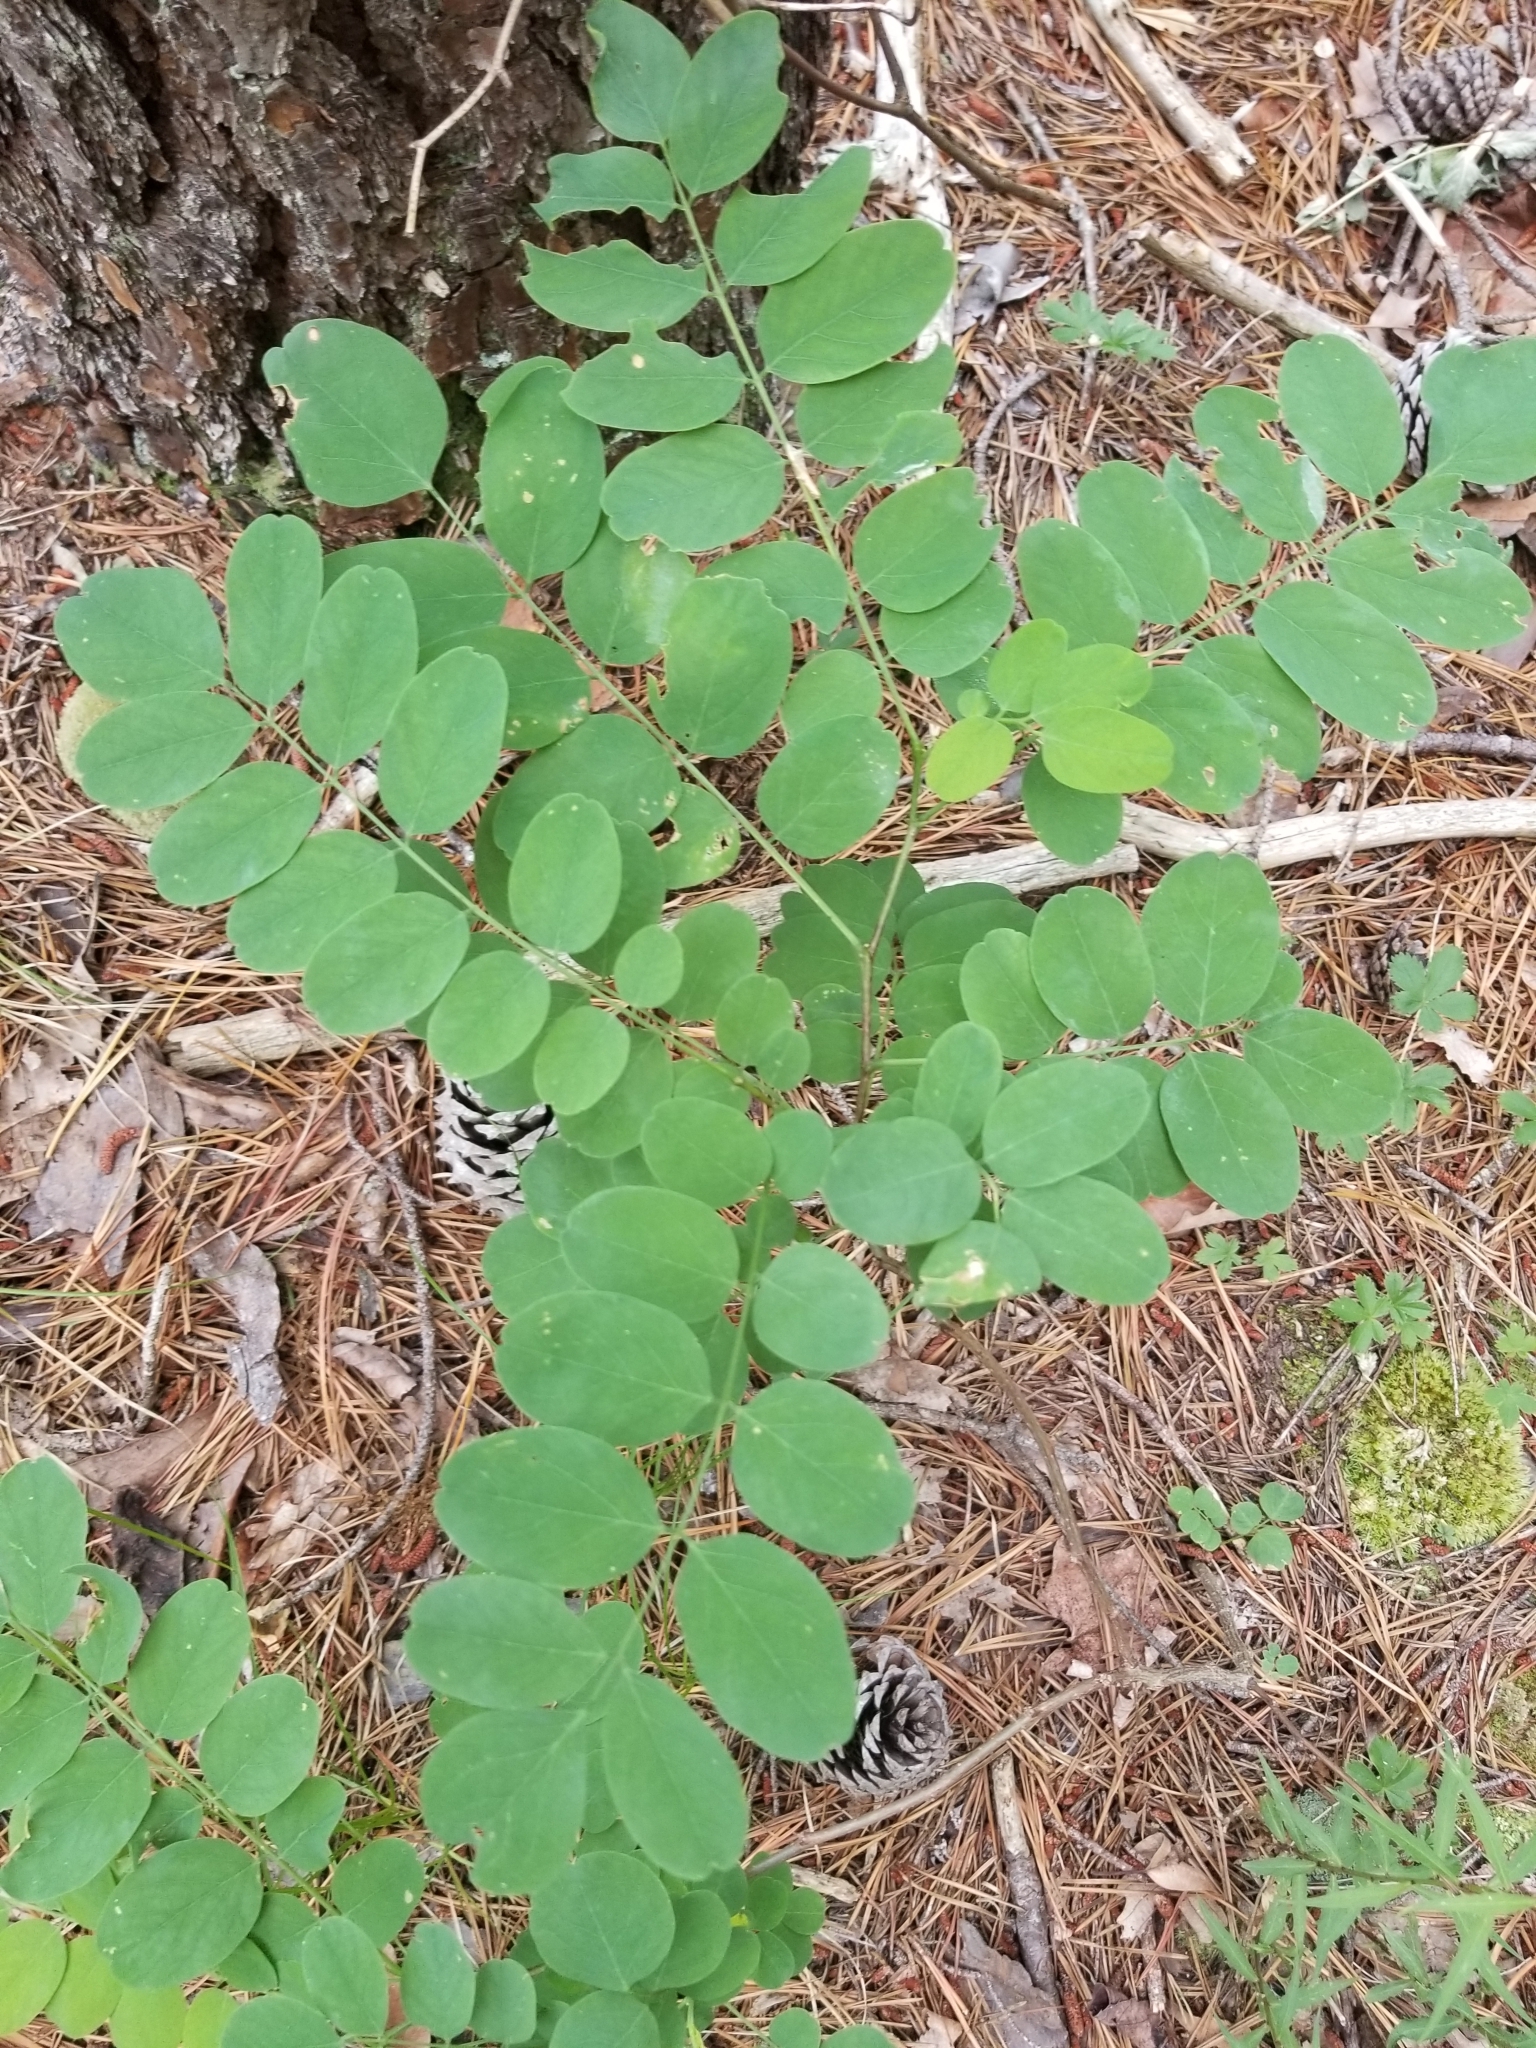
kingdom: Plantae
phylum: Tracheophyta
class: Magnoliopsida
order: Fabales
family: Fabaceae
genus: Robinia
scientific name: Robinia pseudoacacia
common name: Black locust
